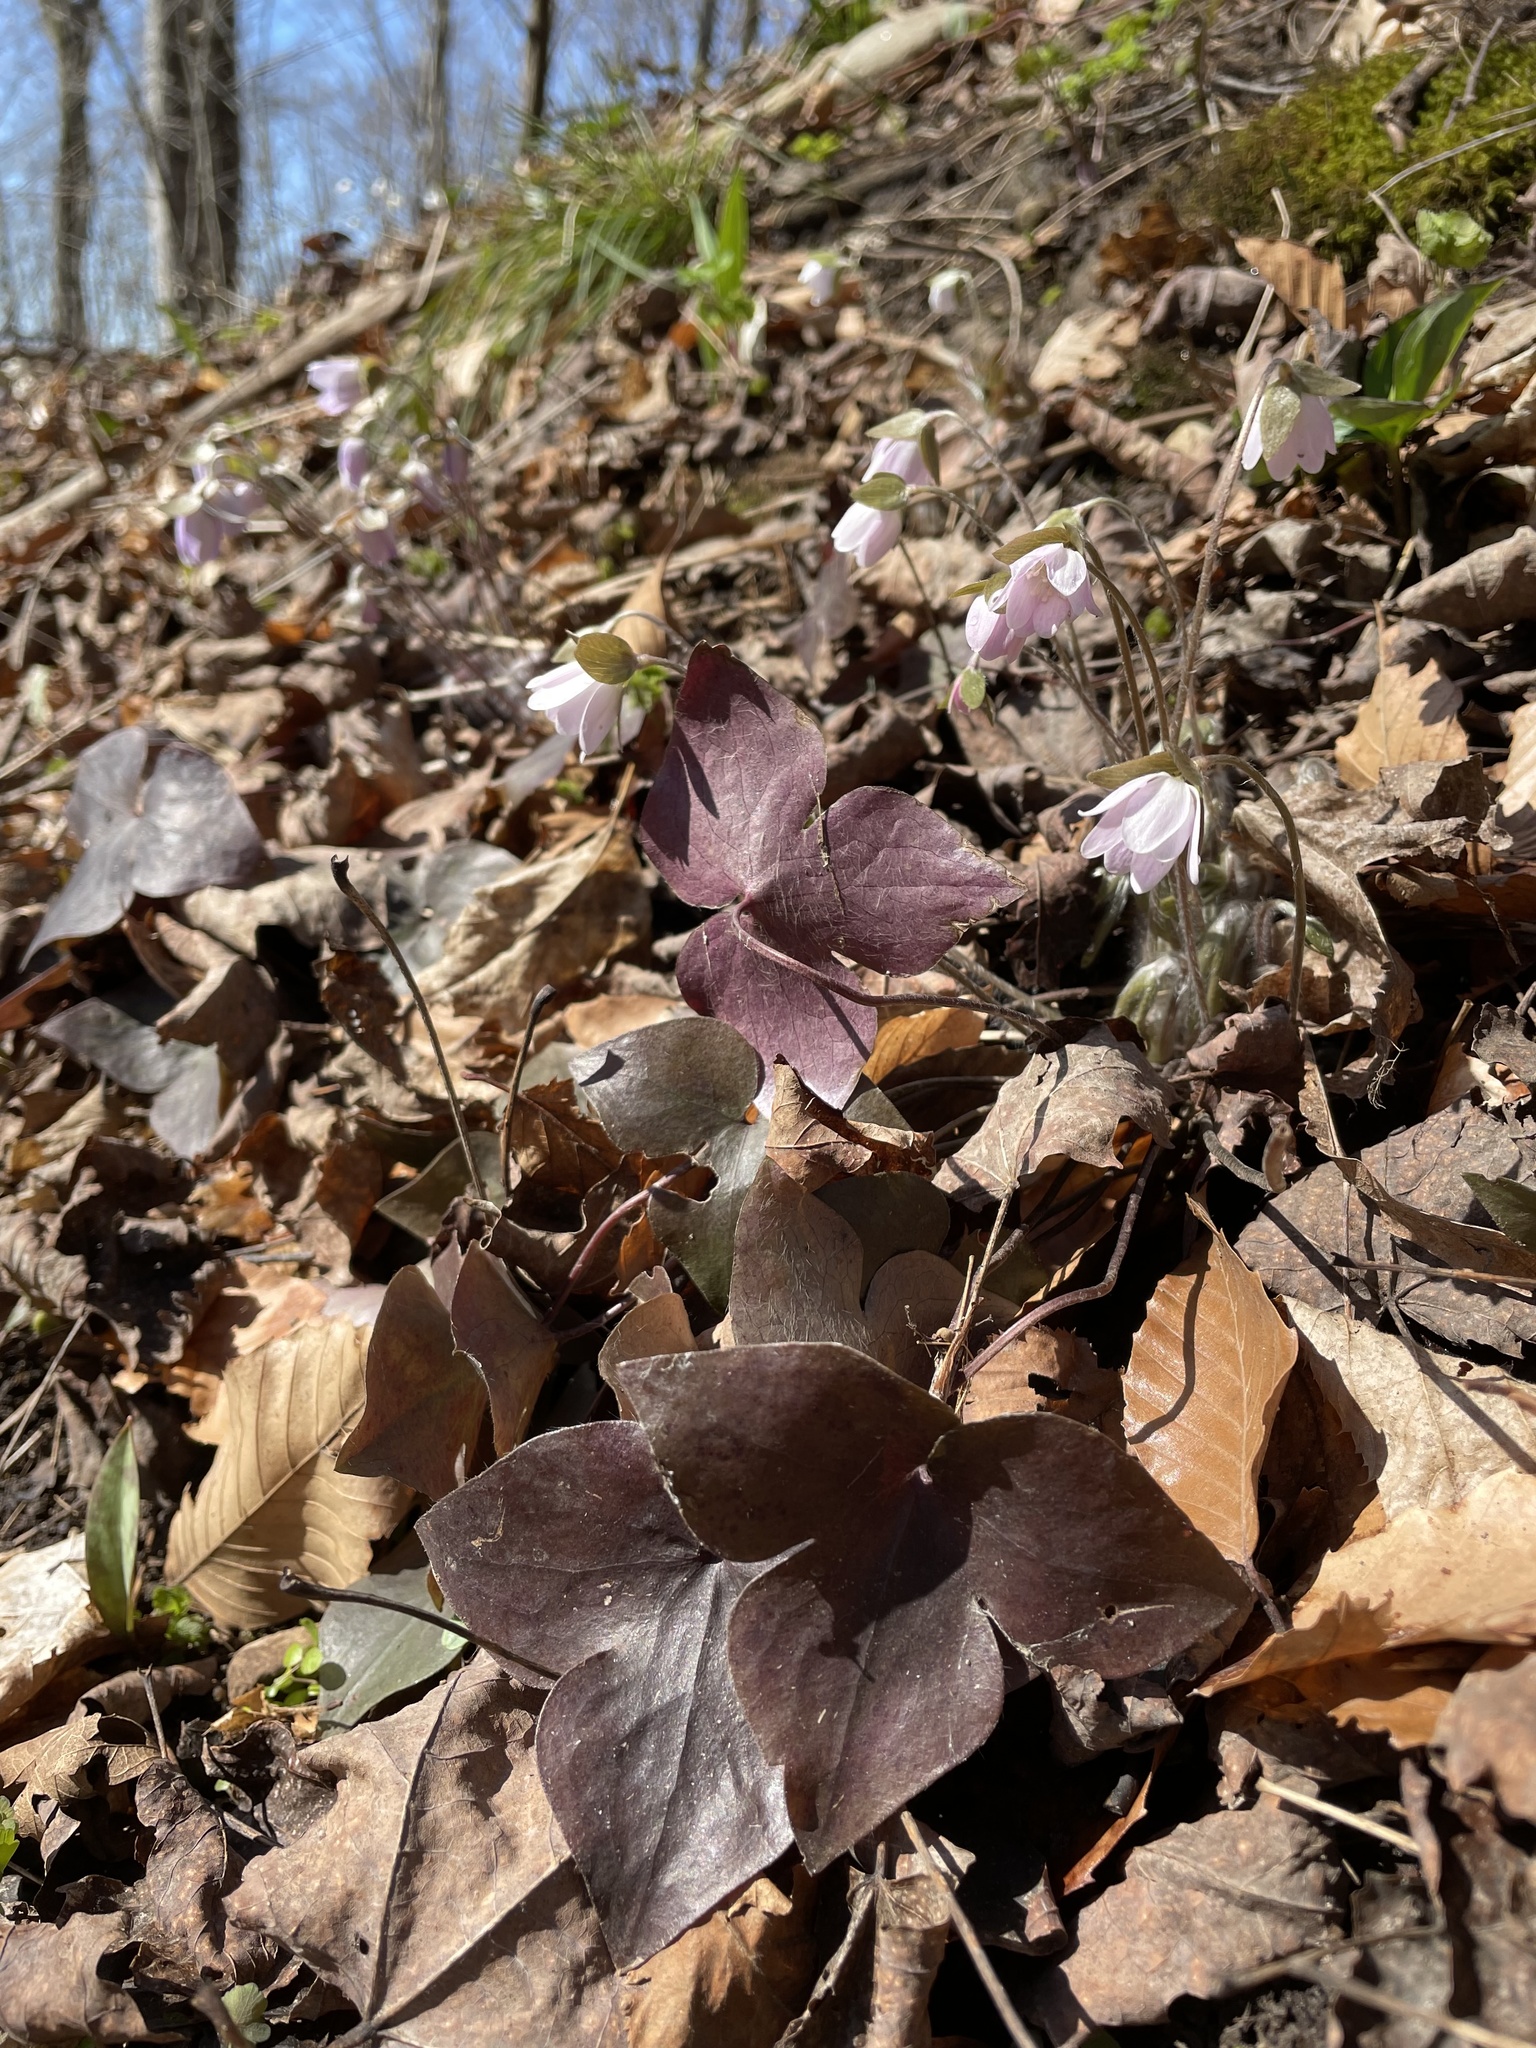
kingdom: Plantae
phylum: Tracheophyta
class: Magnoliopsida
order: Ranunculales
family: Ranunculaceae
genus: Hepatica
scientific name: Hepatica acutiloba
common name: Sharp-lobed hepatica
